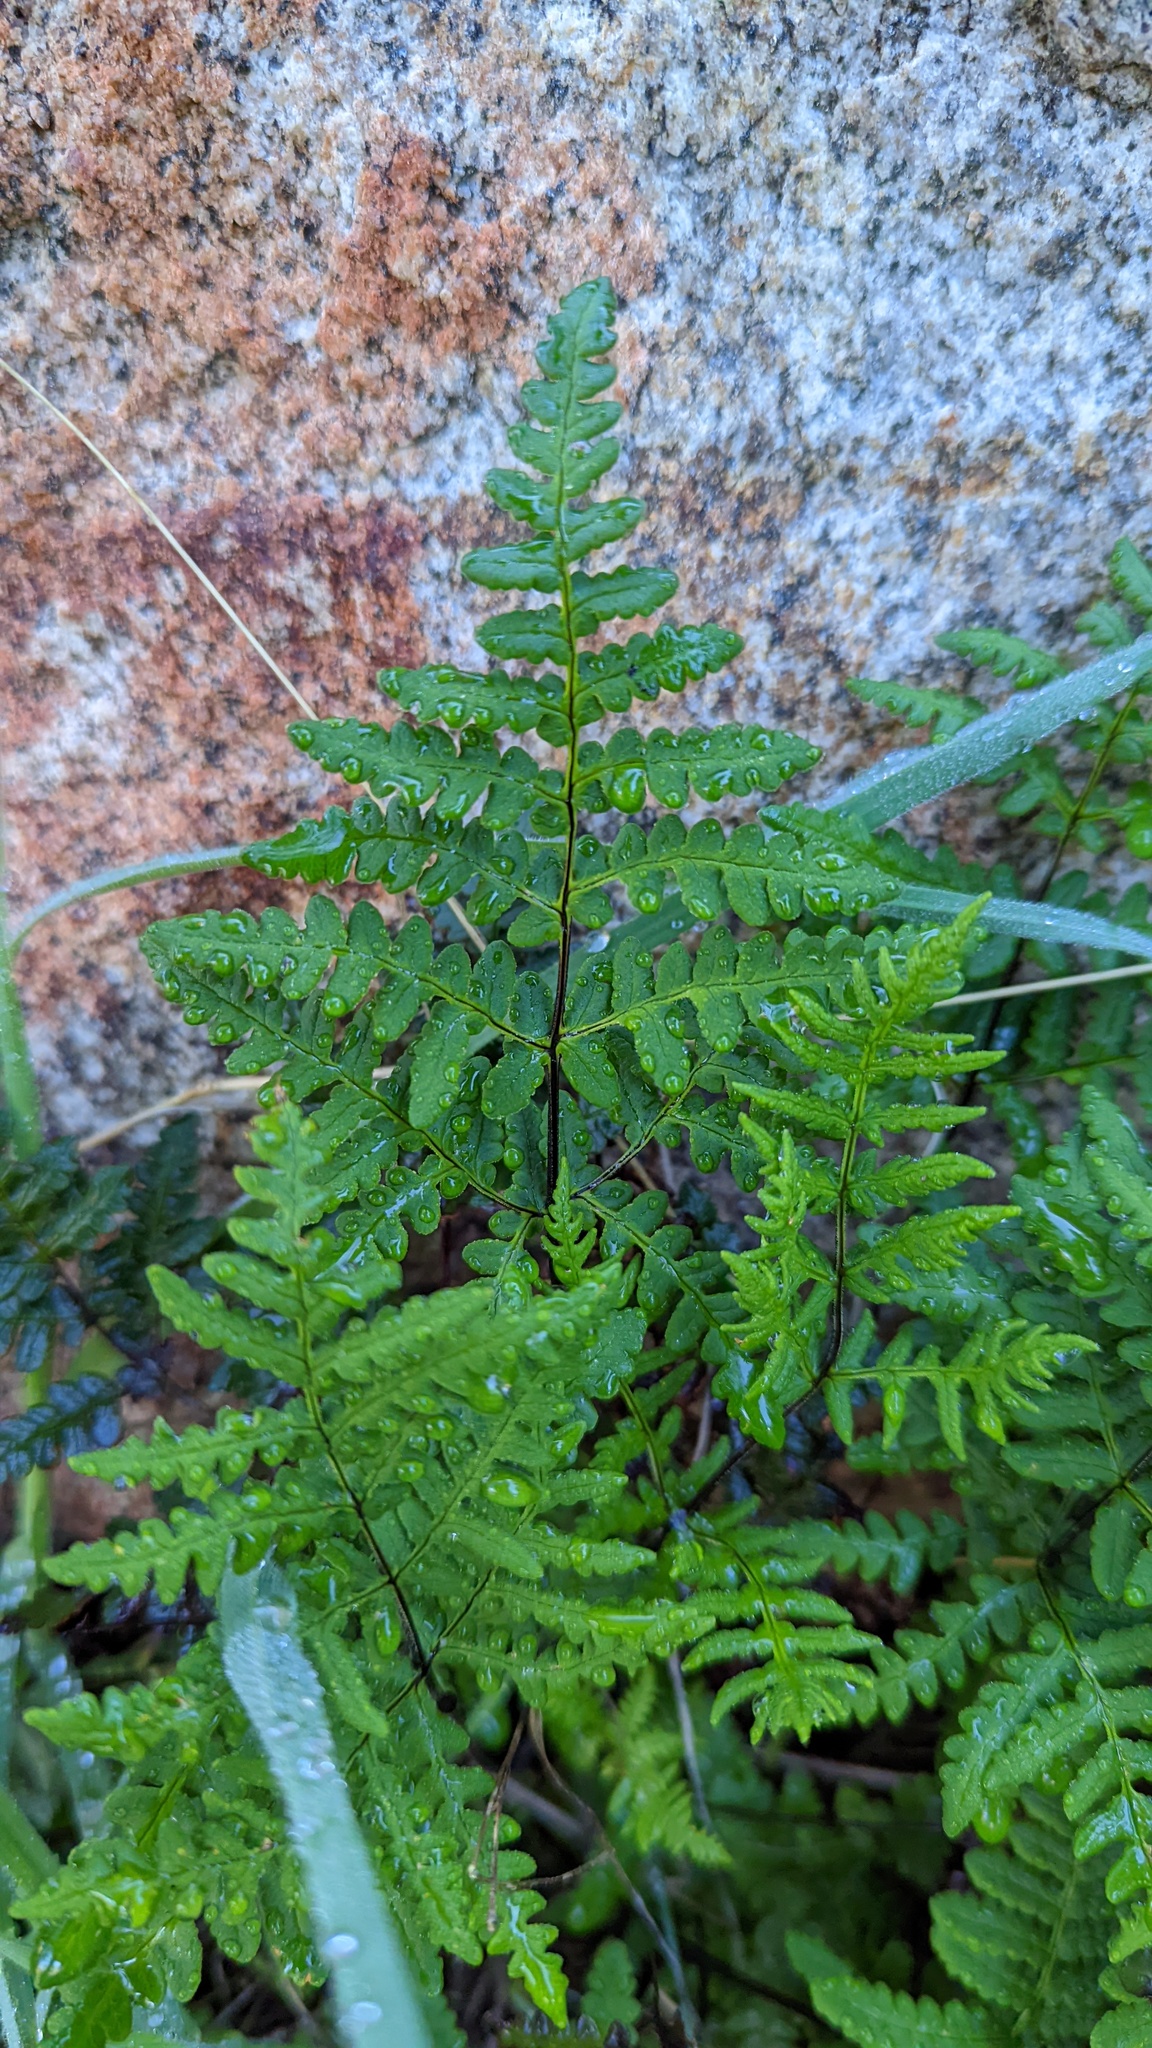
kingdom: Plantae
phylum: Tracheophyta
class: Polypodiopsida
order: Polypodiales
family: Pteridaceae
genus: Pentagramma
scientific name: Pentagramma triangularis
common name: Gold fern
